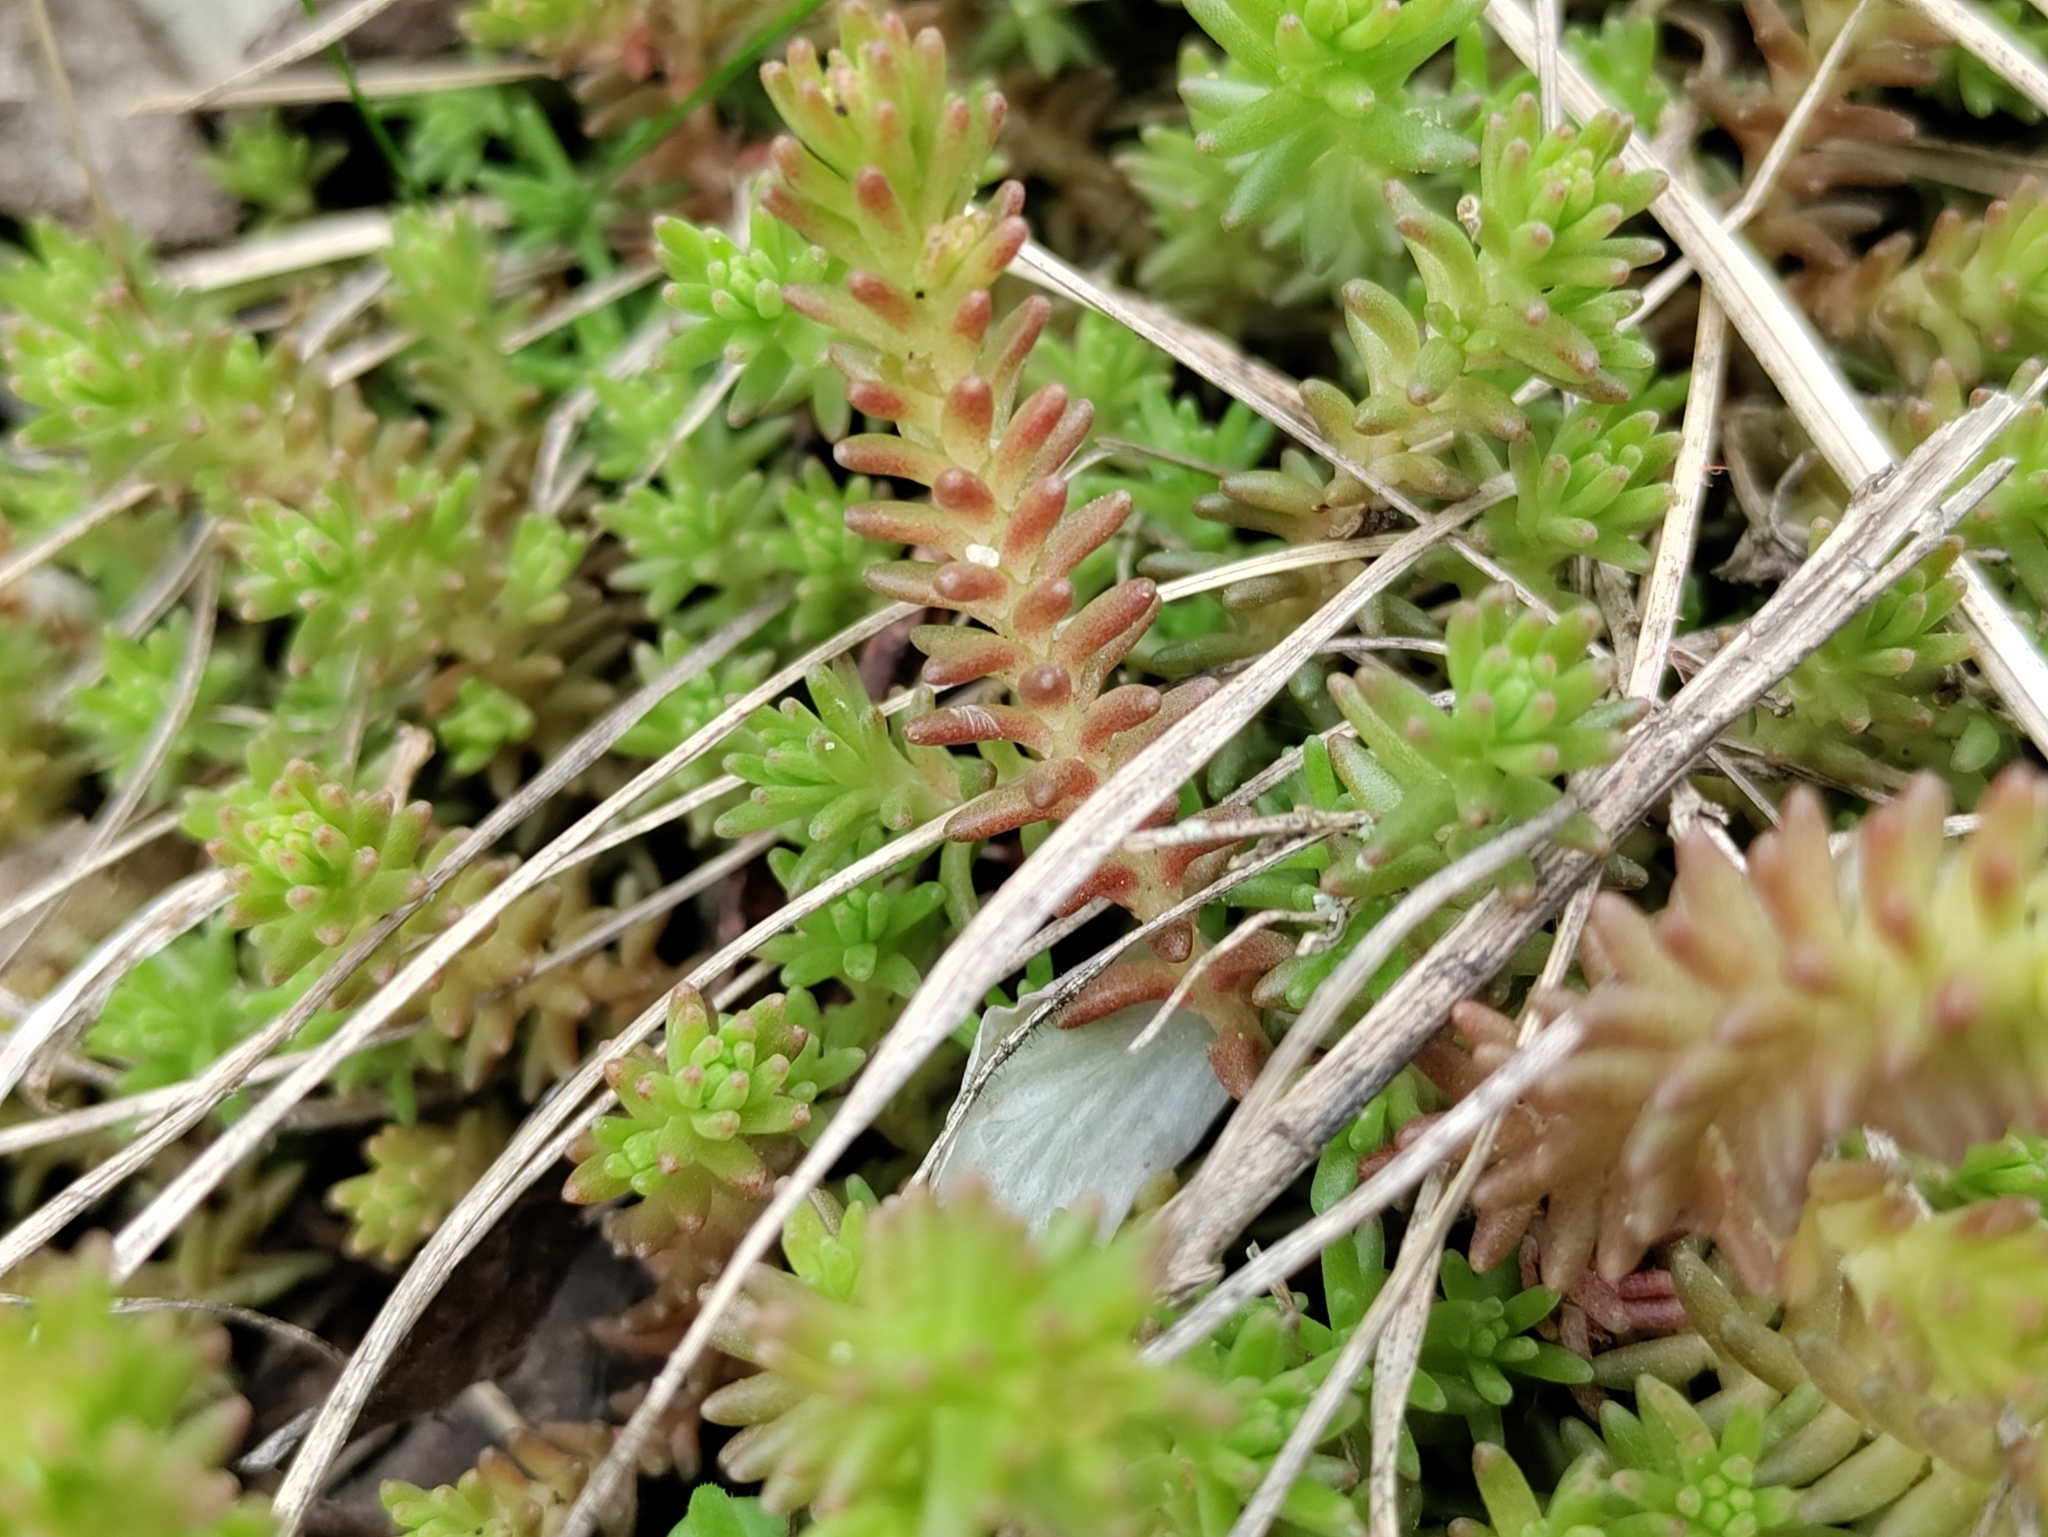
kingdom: Plantae
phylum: Tracheophyta
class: Magnoliopsida
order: Saxifragales
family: Crassulaceae
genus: Sedum
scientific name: Sedum sexangulare
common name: Tasteless stonecrop
